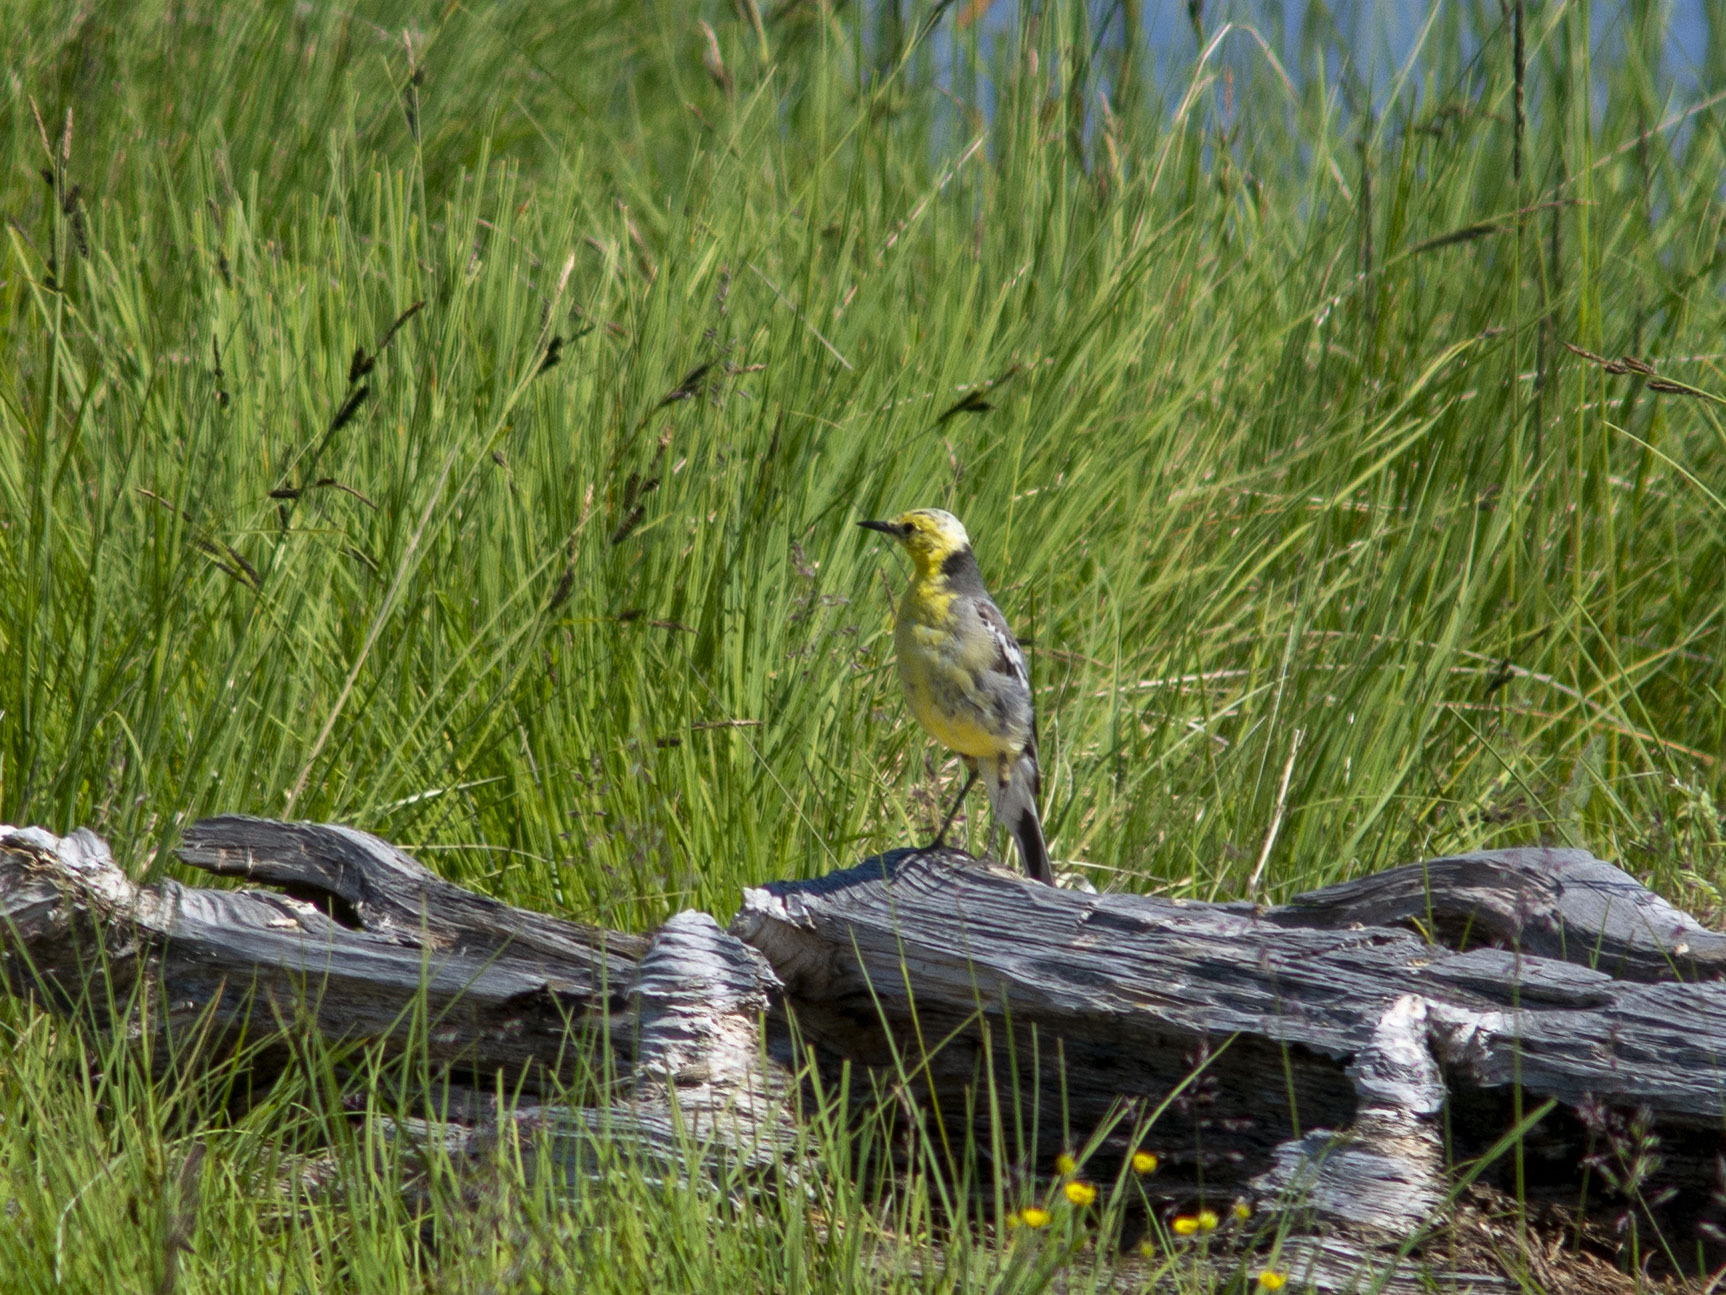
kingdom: Animalia
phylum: Chordata
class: Aves
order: Passeriformes
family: Motacillidae
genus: Motacilla
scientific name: Motacilla citreola
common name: Citrine wagtail
